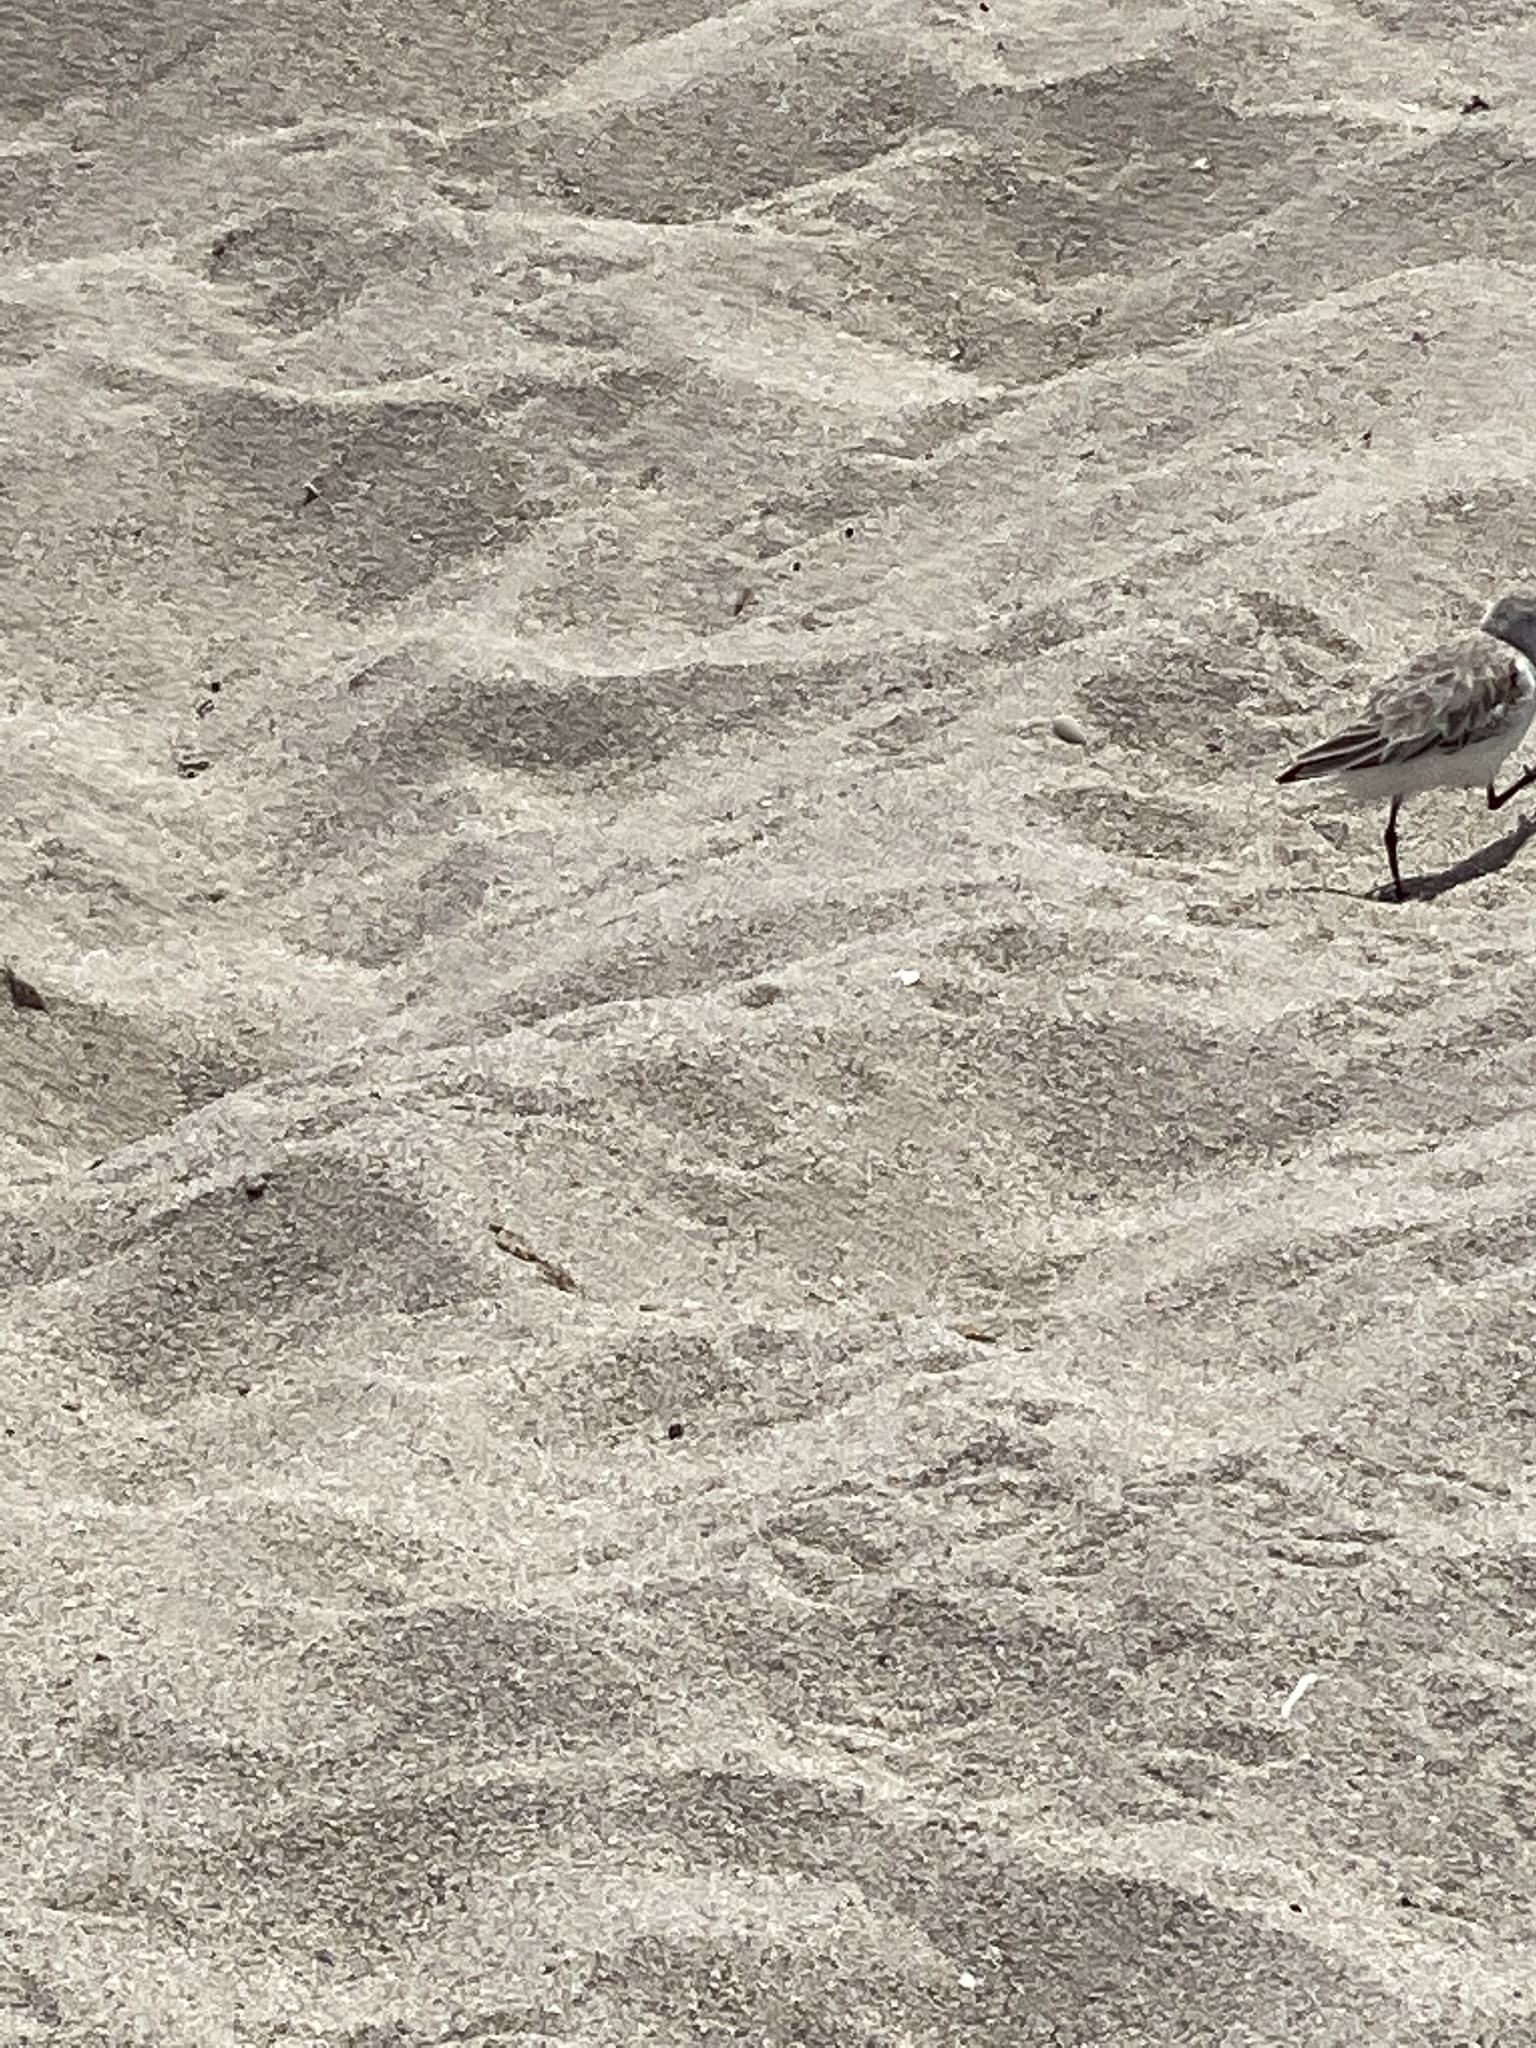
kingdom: Animalia
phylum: Chordata
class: Aves
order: Charadriiformes
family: Scolopacidae
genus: Calidris
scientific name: Calidris alba
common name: Sanderling
